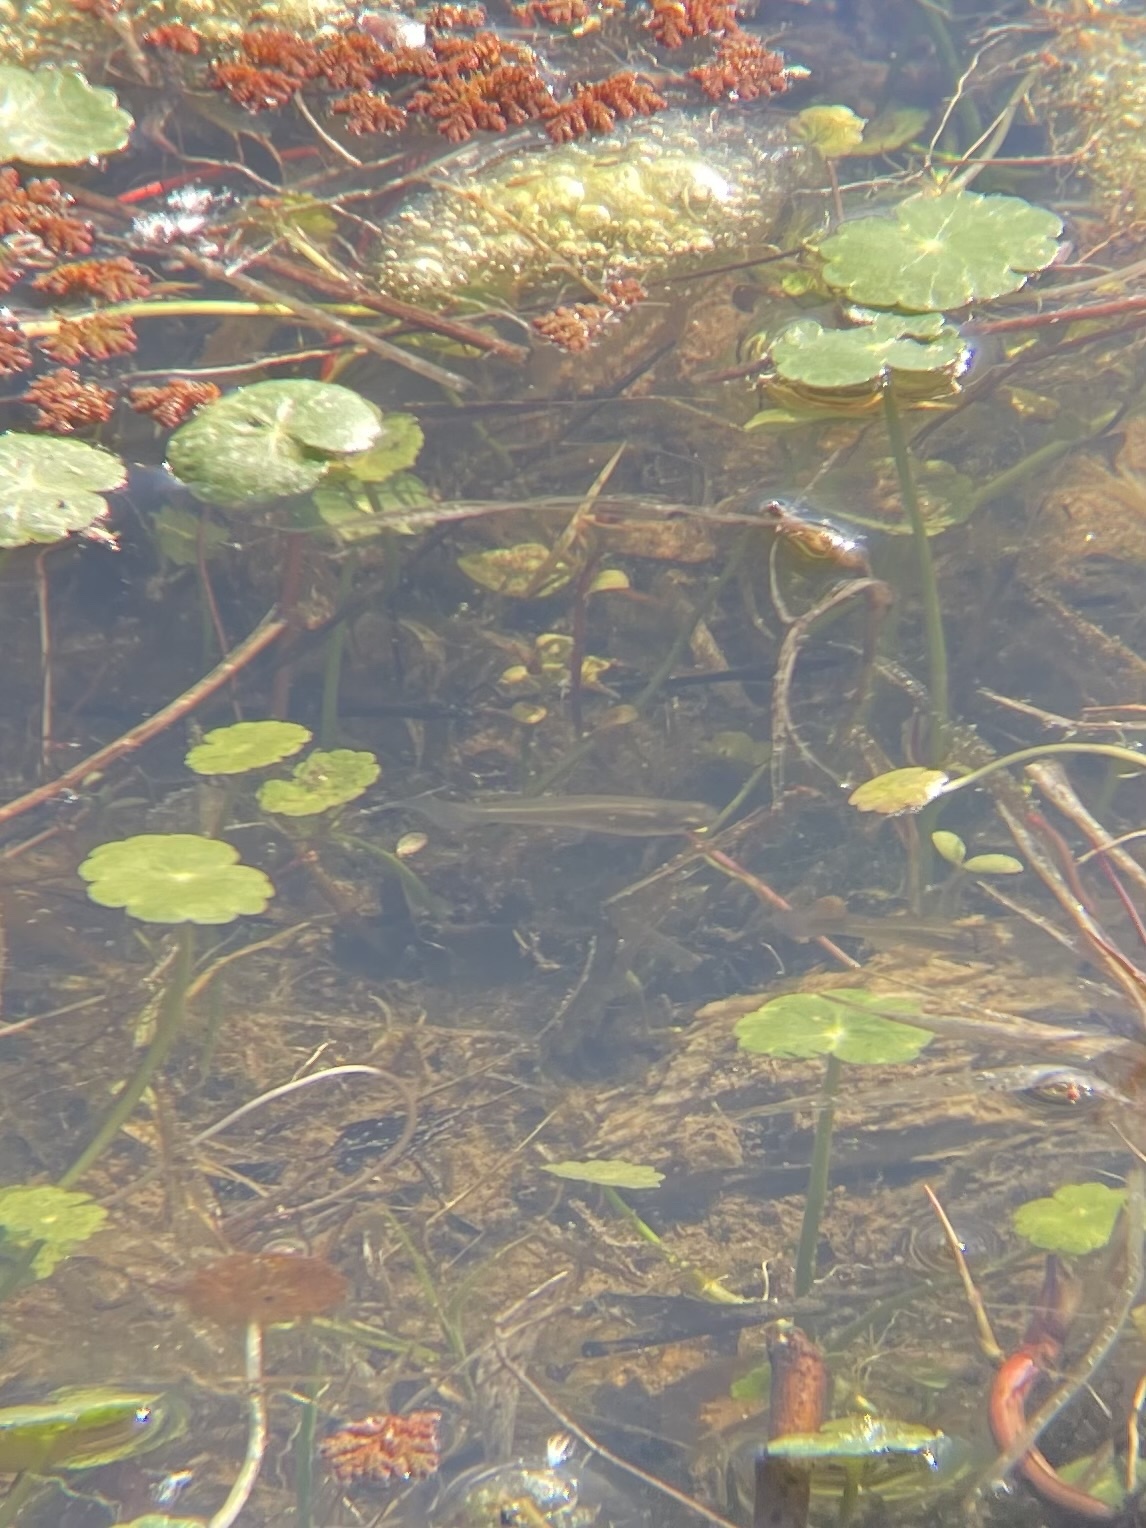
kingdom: Animalia
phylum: Chordata
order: Cyprinodontiformes
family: Poeciliidae
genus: Gambusia
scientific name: Gambusia affinis
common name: Mosquitofish
